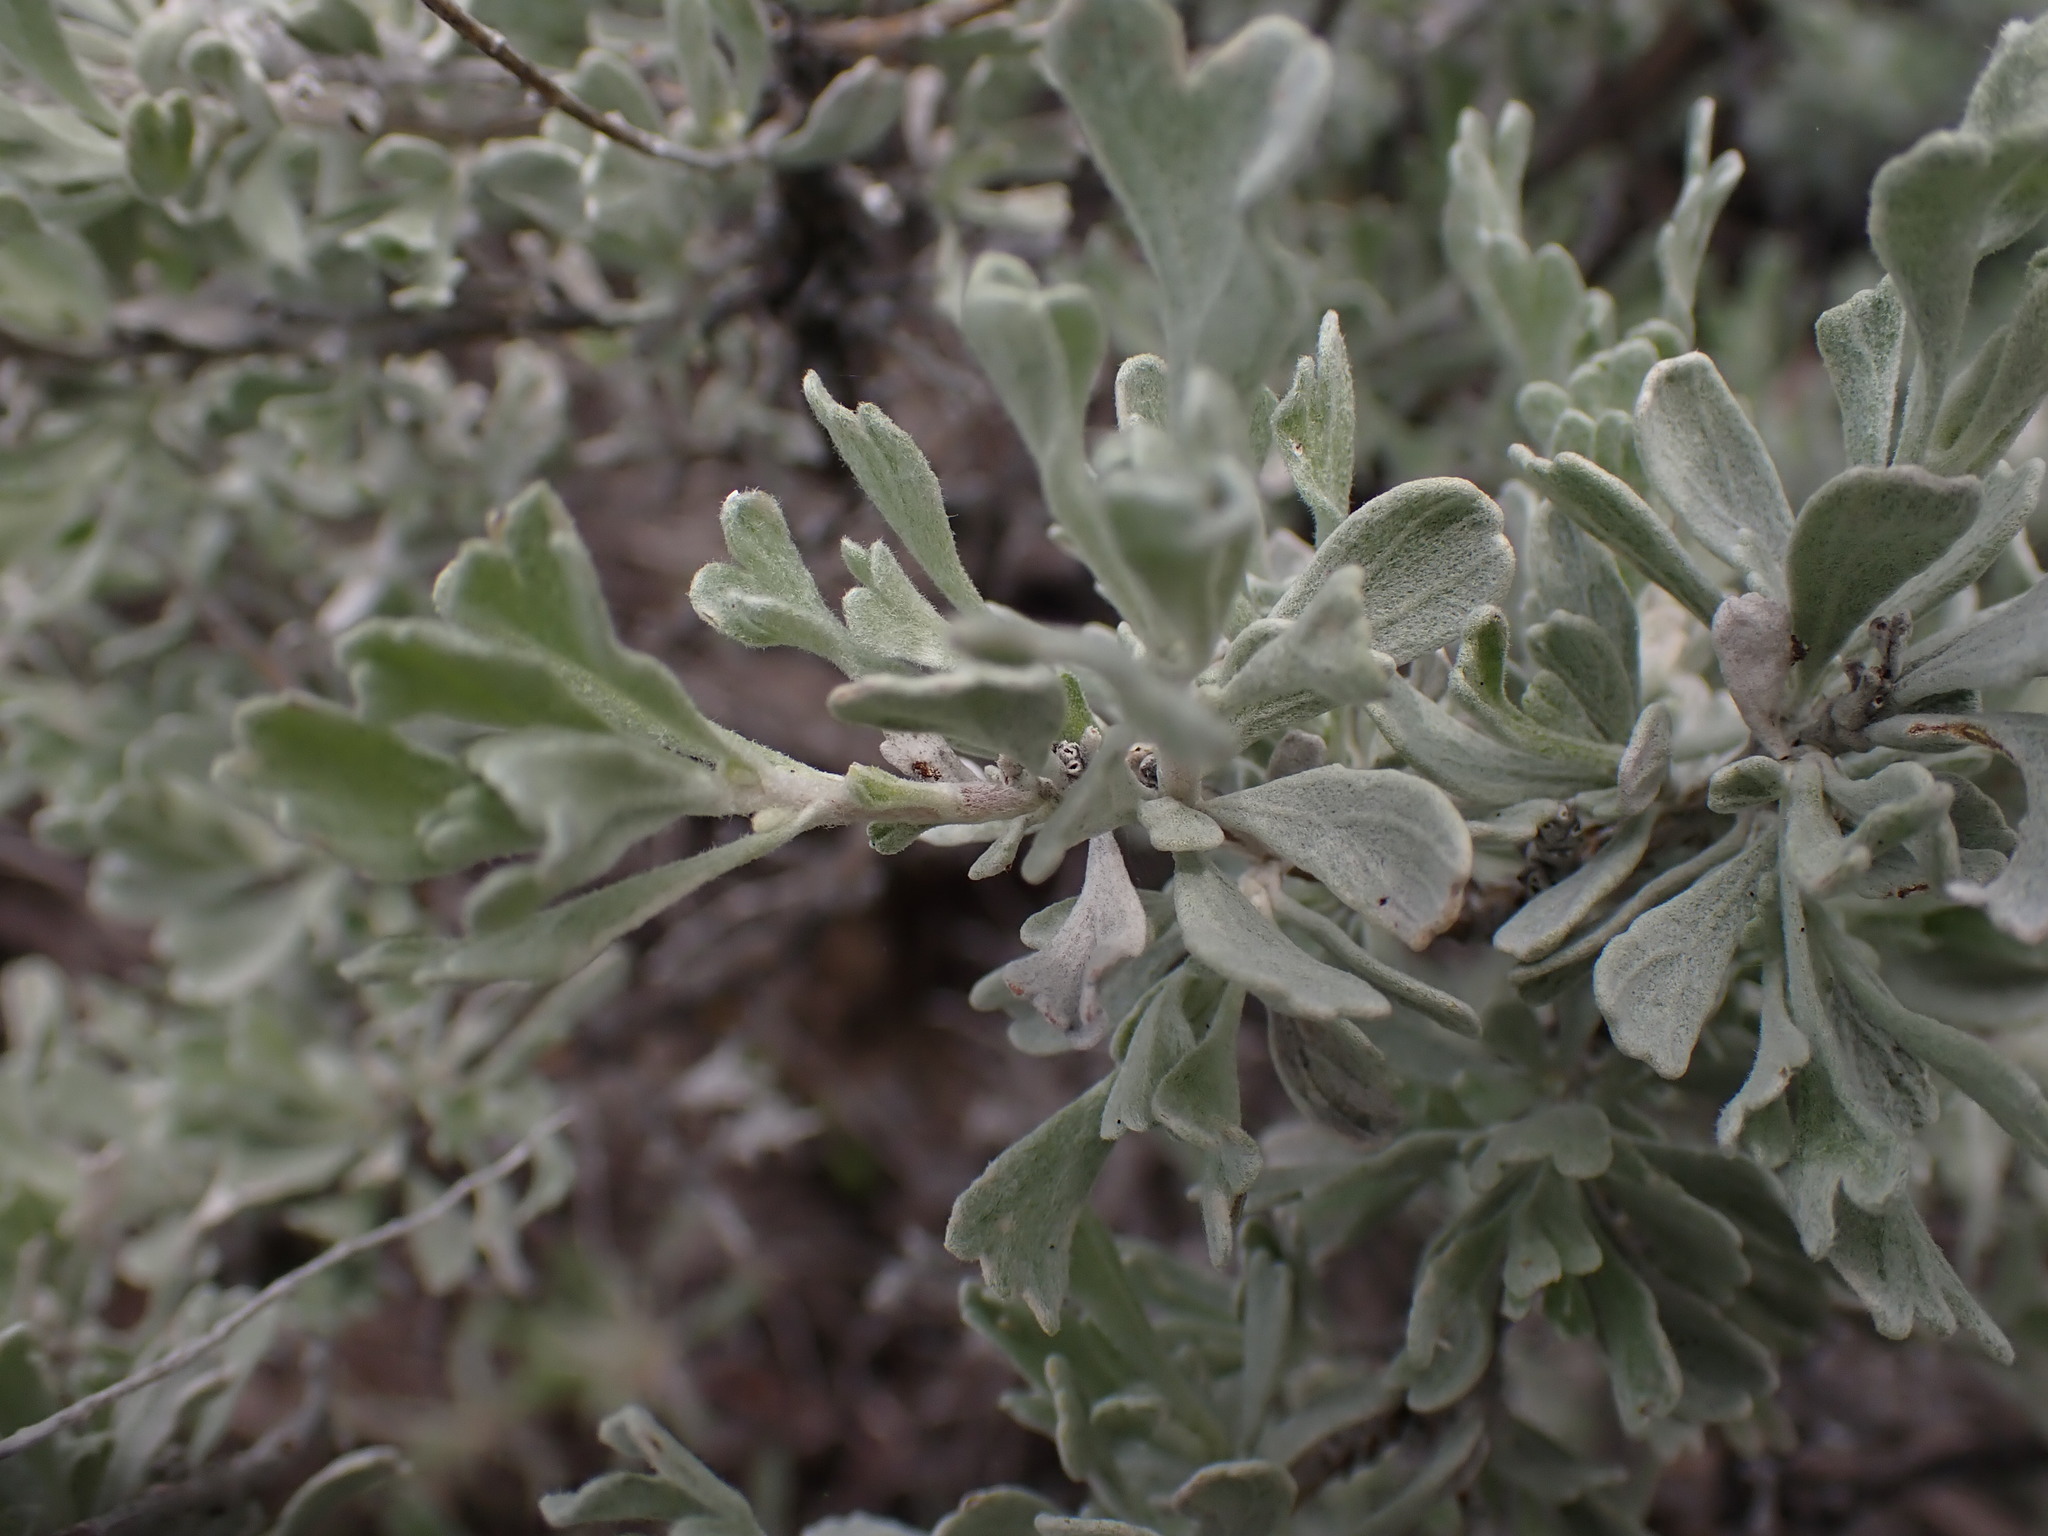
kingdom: Plantae
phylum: Tracheophyta
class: Magnoliopsida
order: Asterales
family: Asteraceae
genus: Artemisia
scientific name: Artemisia tridentata
